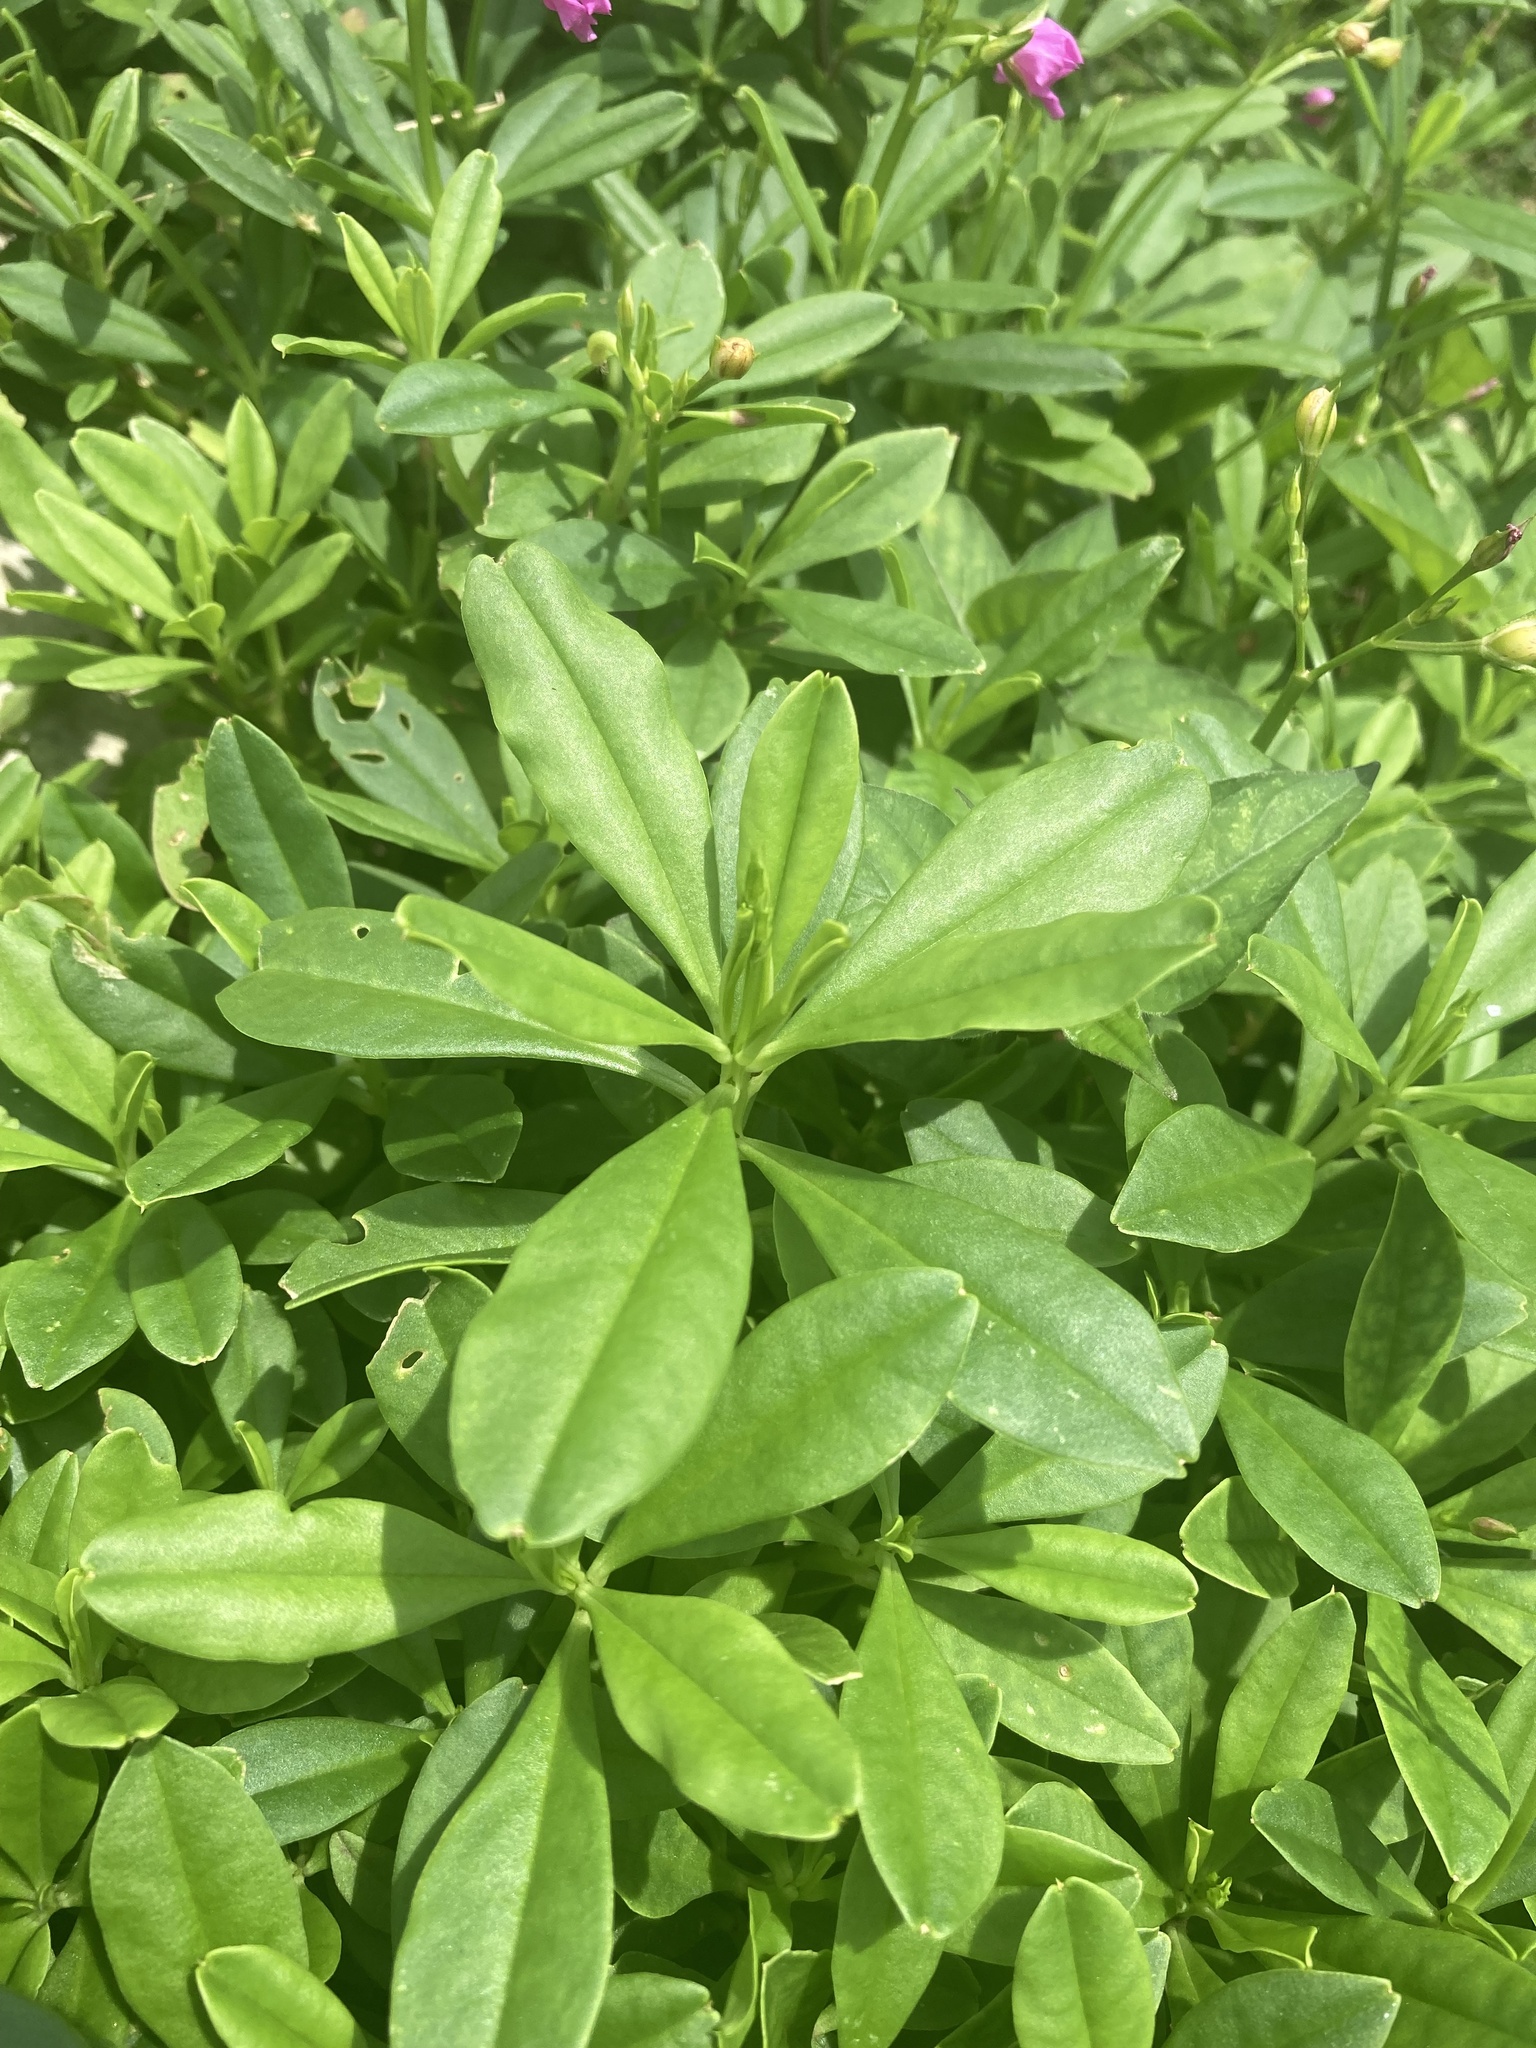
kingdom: Plantae
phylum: Tracheophyta
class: Magnoliopsida
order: Caryophyllales
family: Talinaceae
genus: Talinum
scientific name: Talinum fruticosum
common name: Verdolaga-francesa
